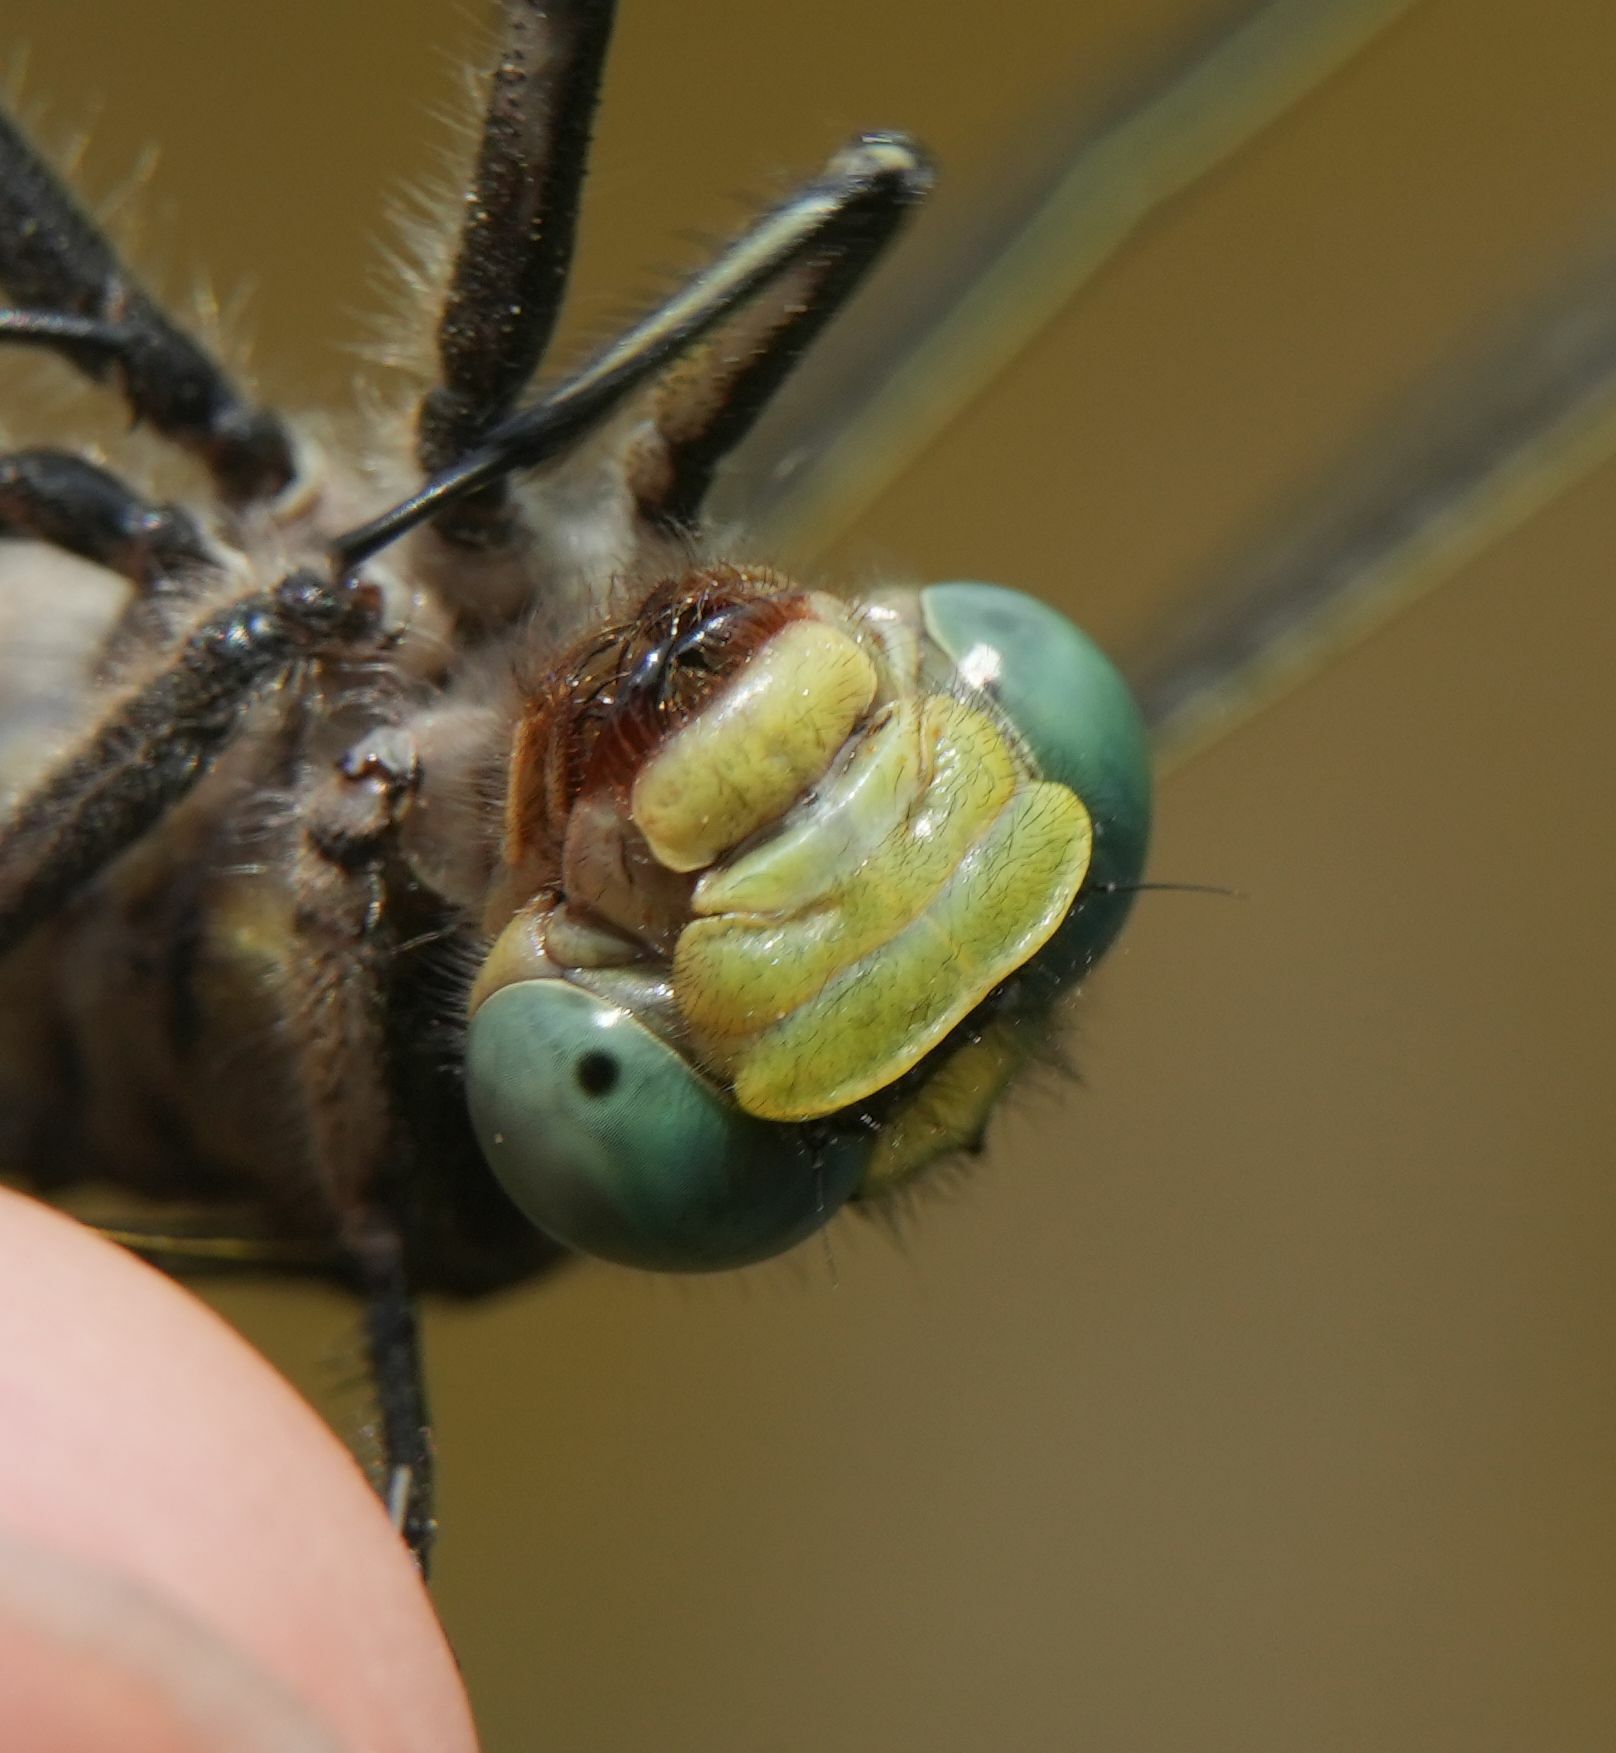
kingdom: Animalia
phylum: Arthropoda
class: Insecta
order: Odonata
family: Gomphidae
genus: Arigomphus
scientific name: Arigomphus villosipes
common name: Unicorn clubtail
